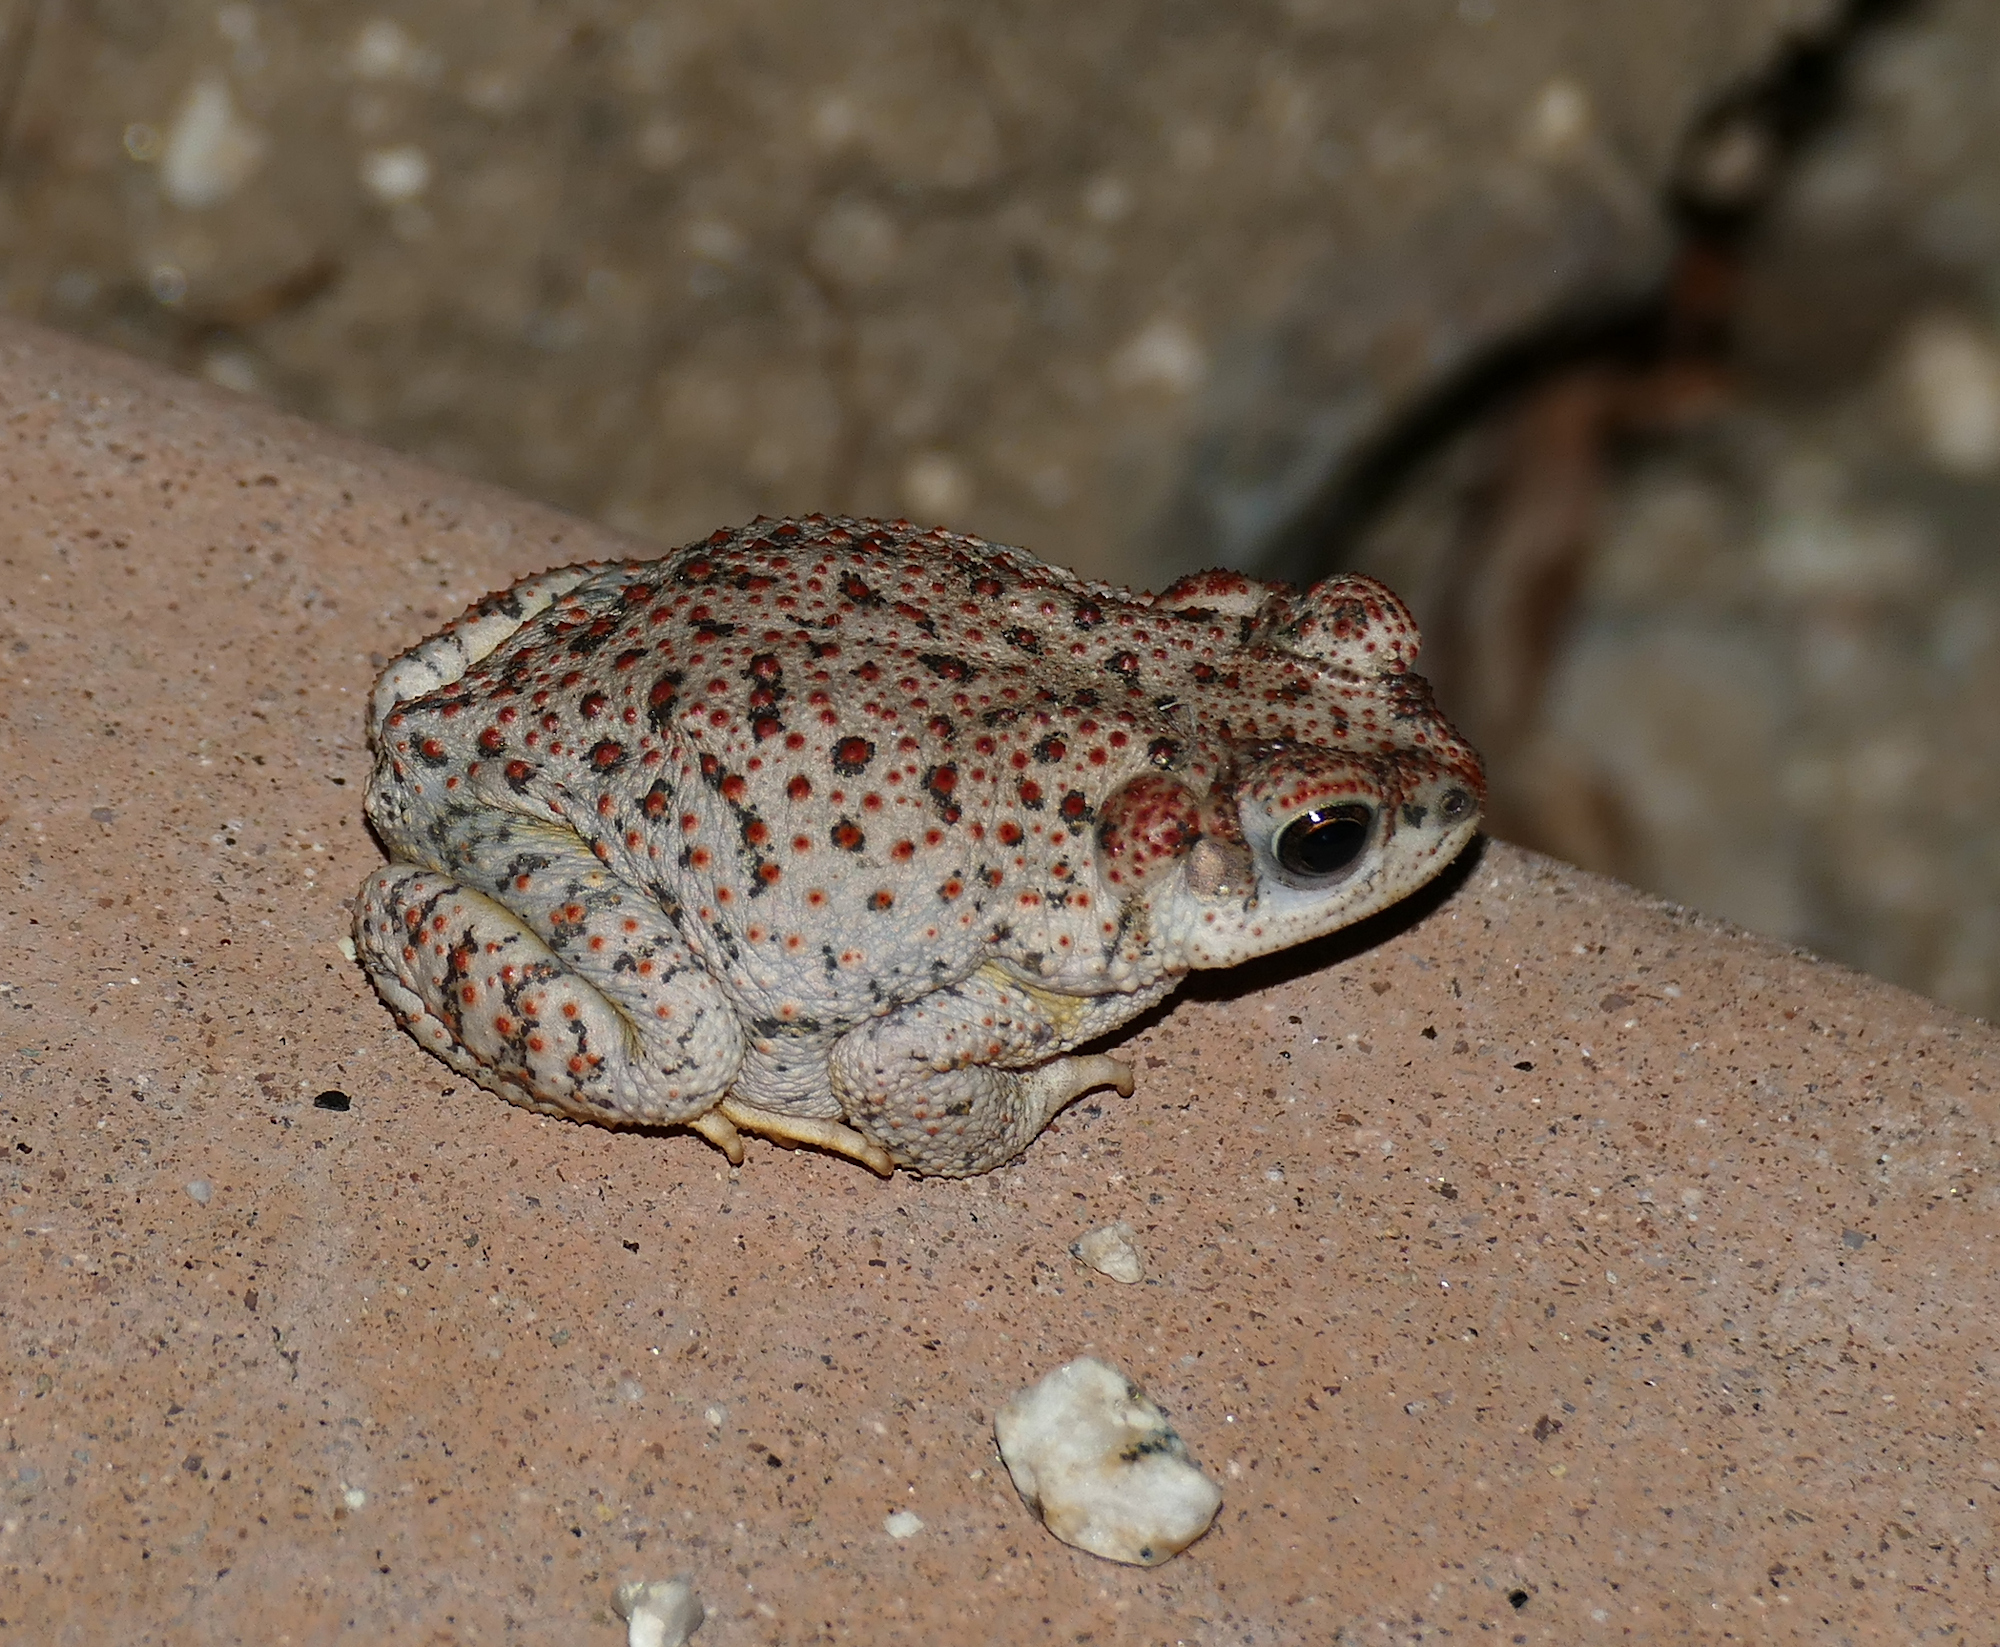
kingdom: Animalia
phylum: Chordata
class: Amphibia
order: Anura
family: Bufonidae
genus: Anaxyrus
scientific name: Anaxyrus punctatus
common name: Red-spotted toad
